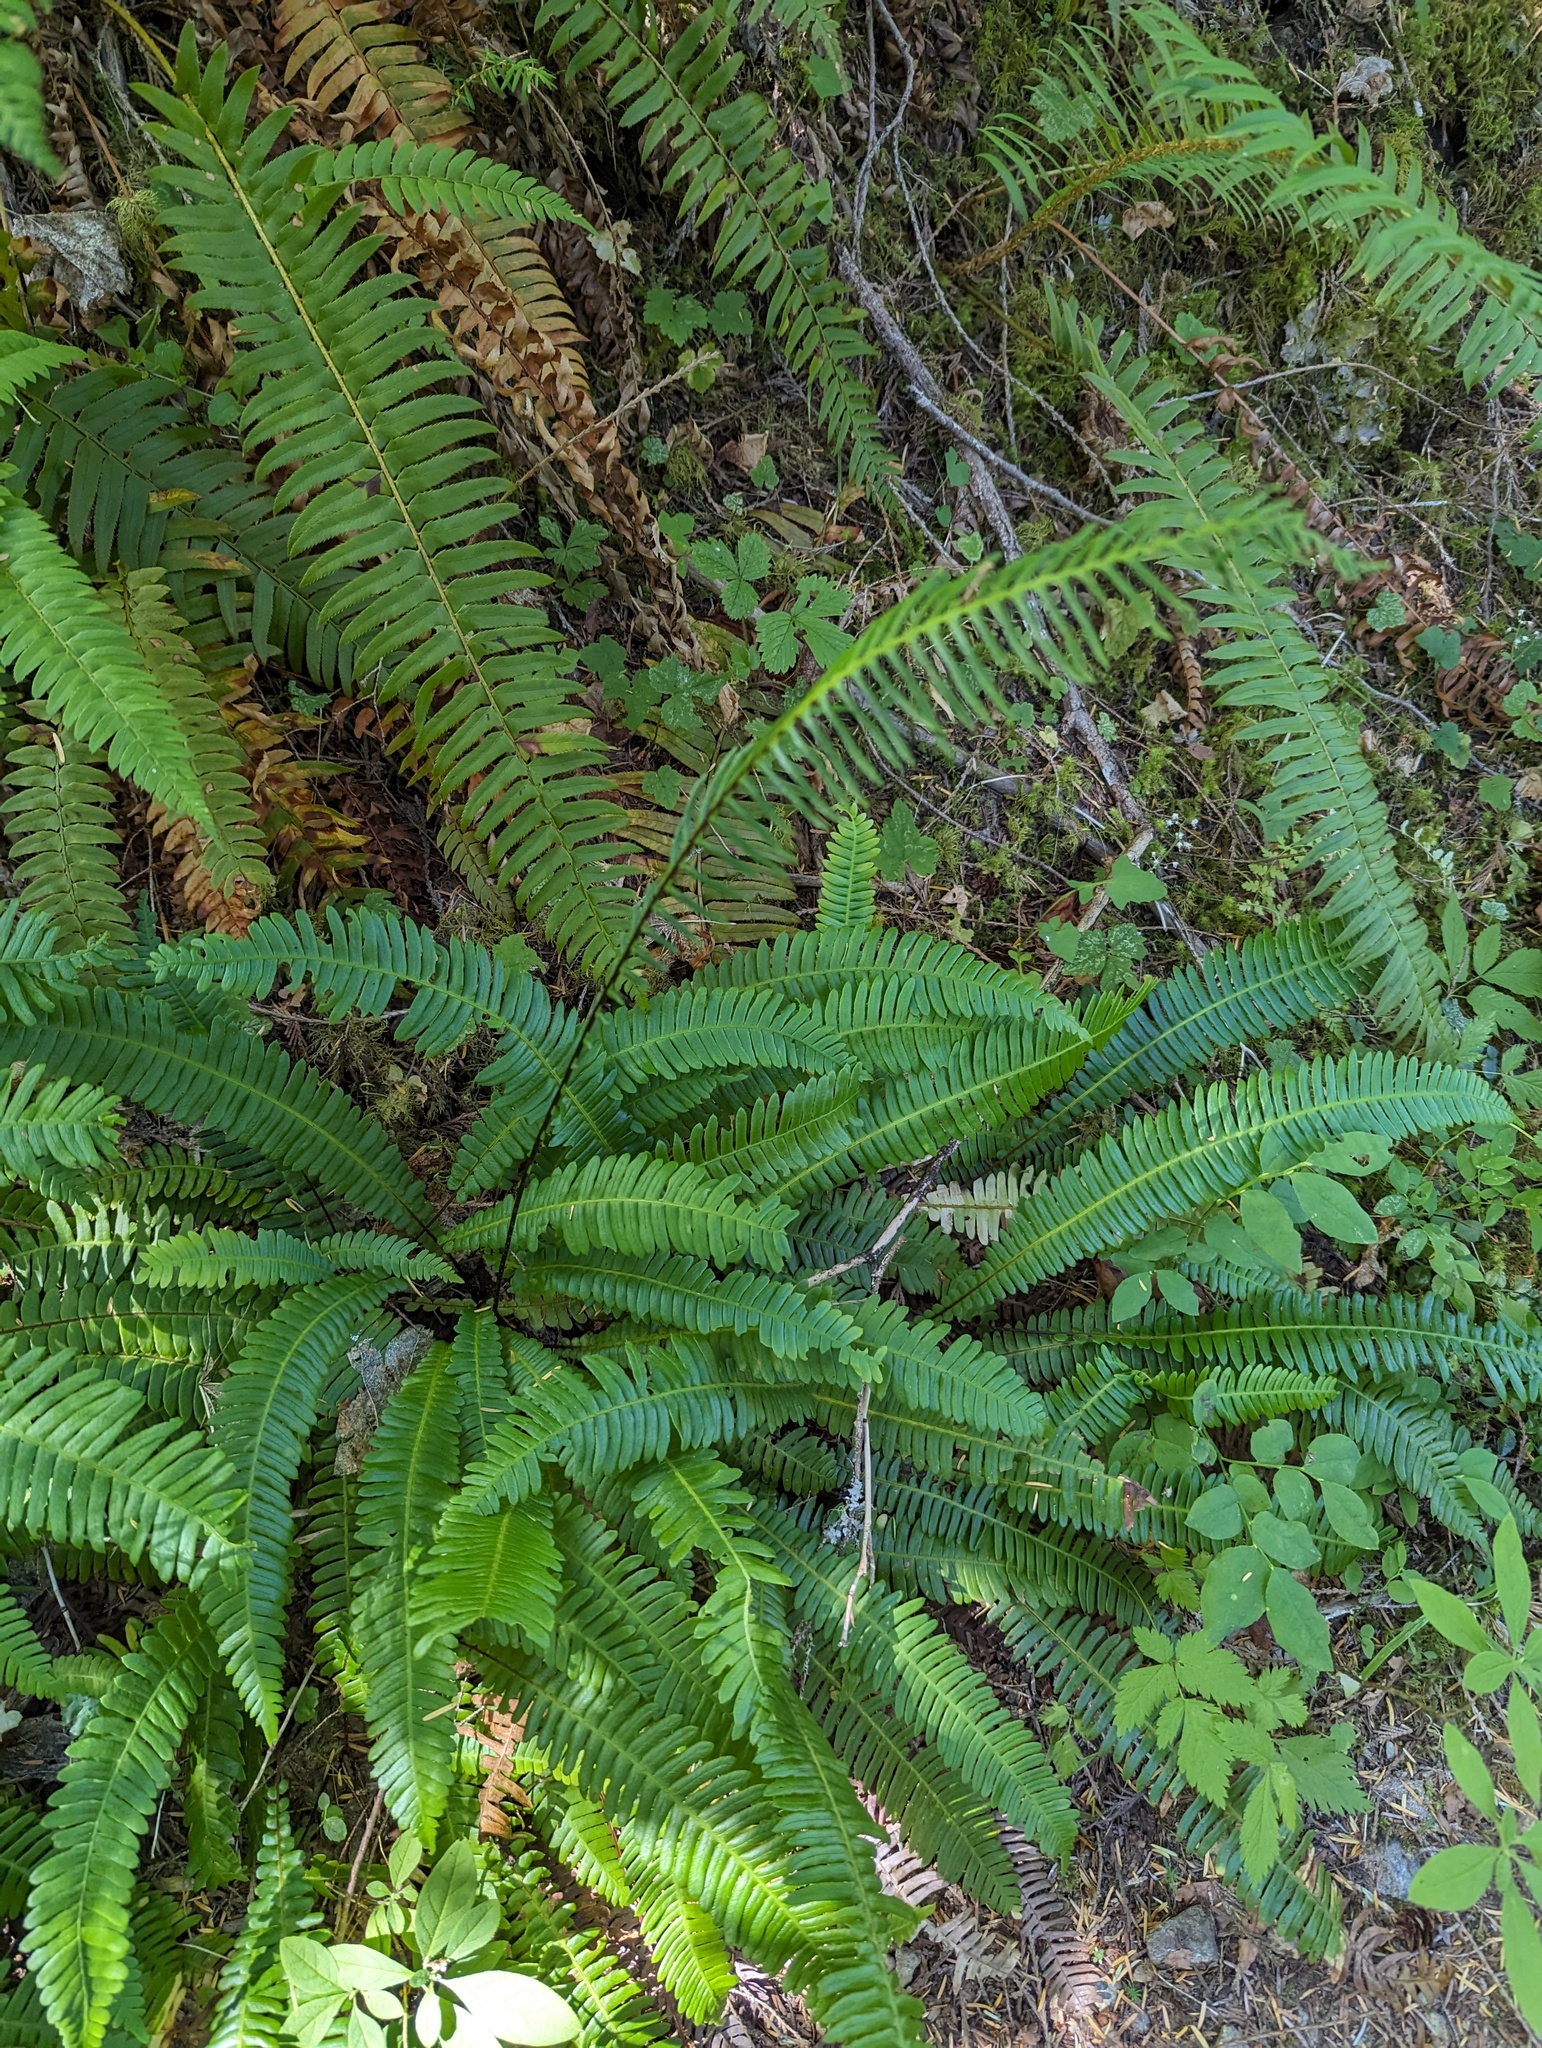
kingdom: Plantae
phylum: Tracheophyta
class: Polypodiopsida
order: Polypodiales
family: Blechnaceae
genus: Struthiopteris
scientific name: Struthiopteris spicant
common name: Deer fern
